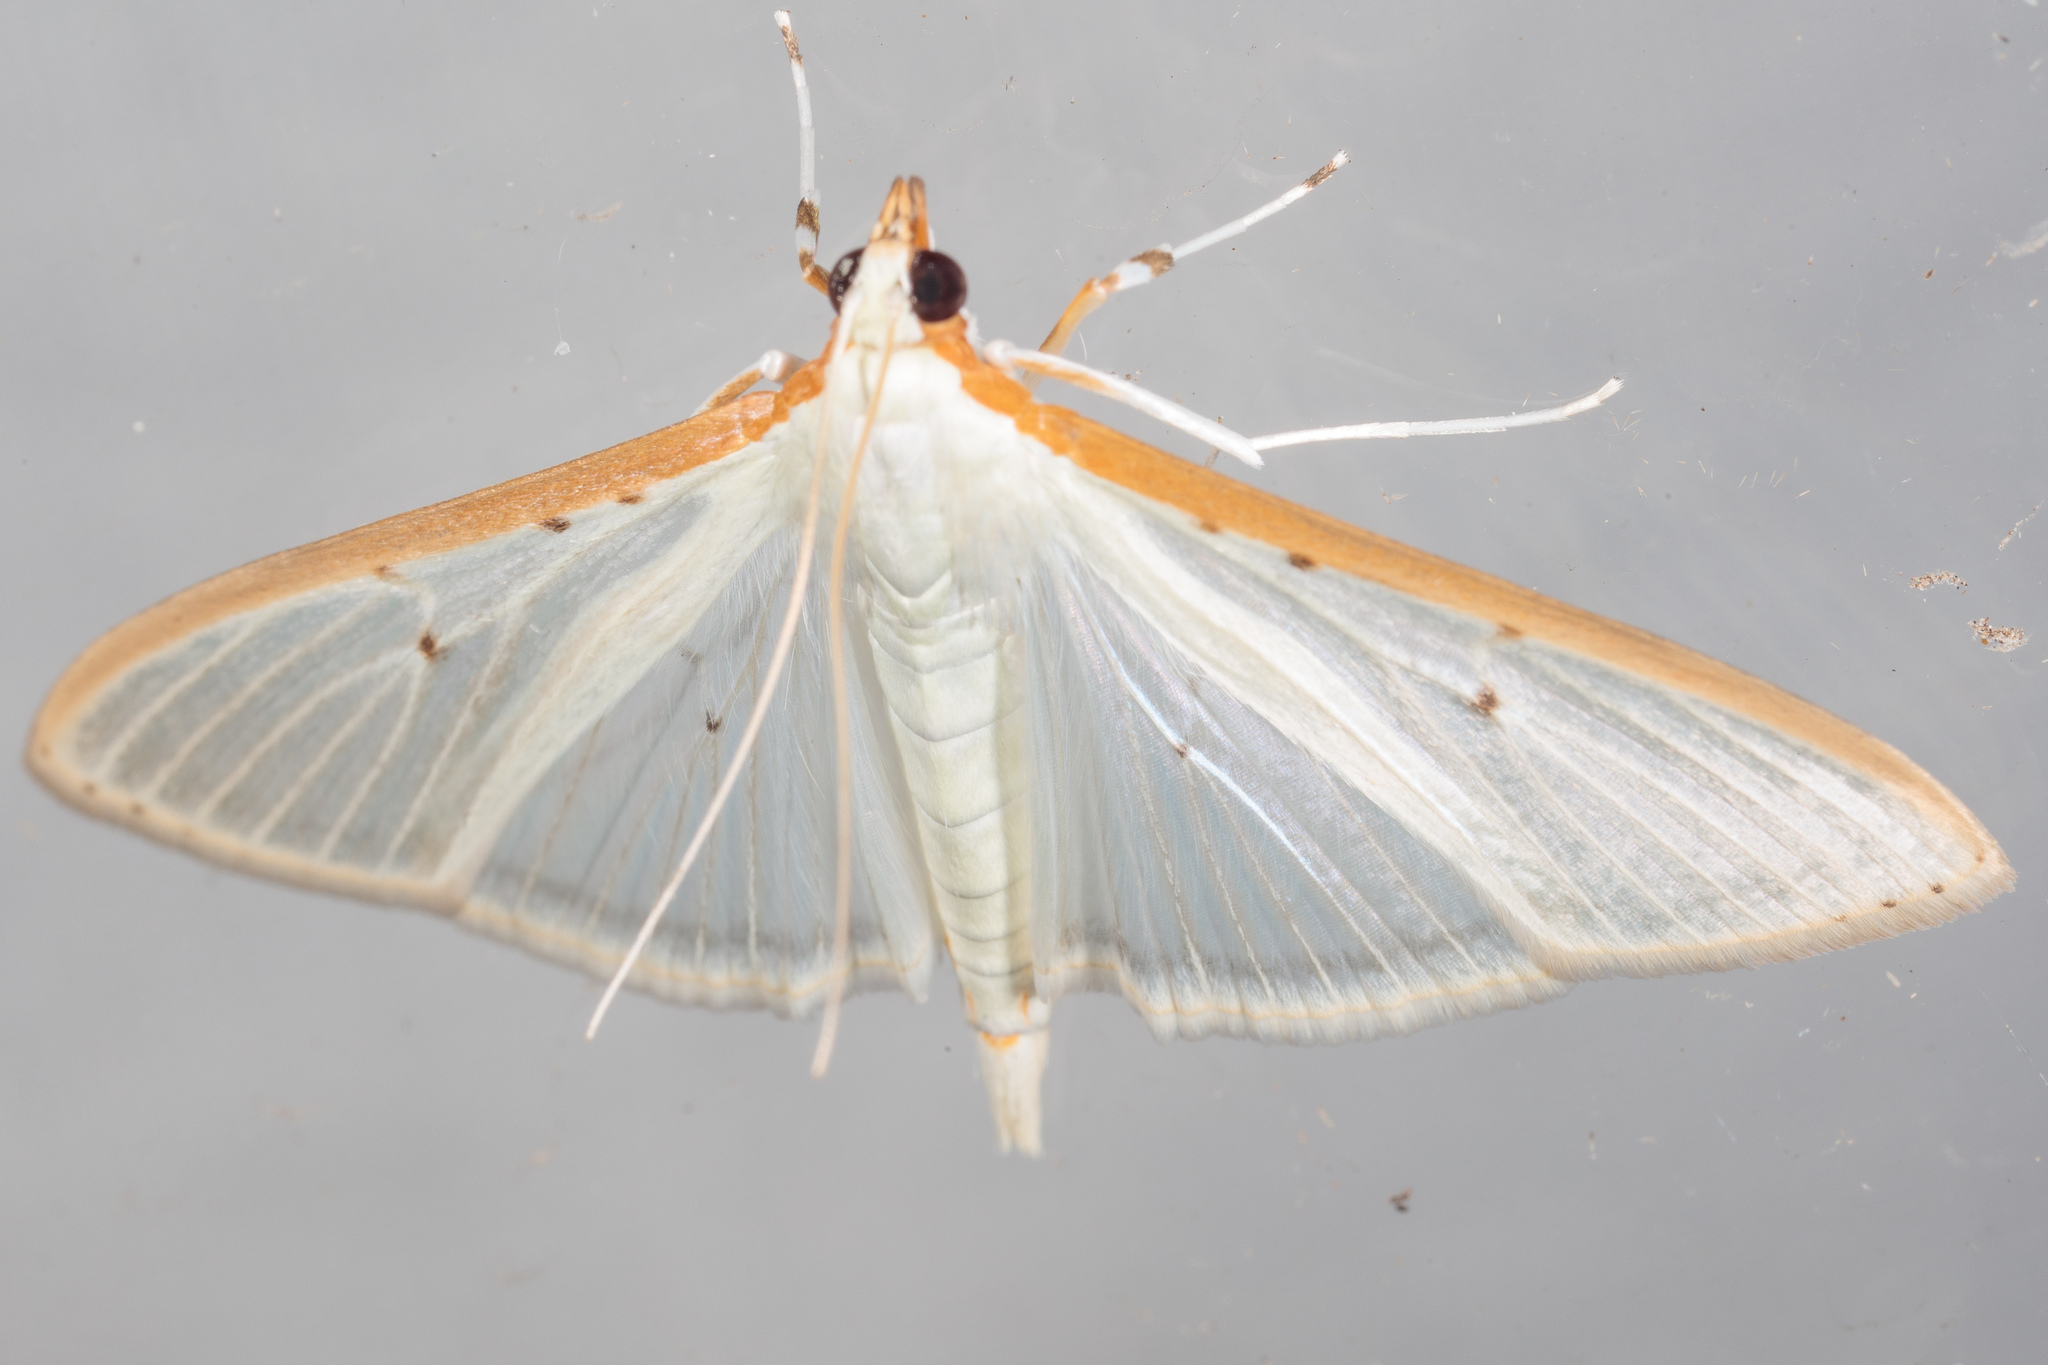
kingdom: Animalia
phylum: Arthropoda
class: Insecta
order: Lepidoptera
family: Crambidae
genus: Palpita
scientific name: Palpita quadristigmalis
